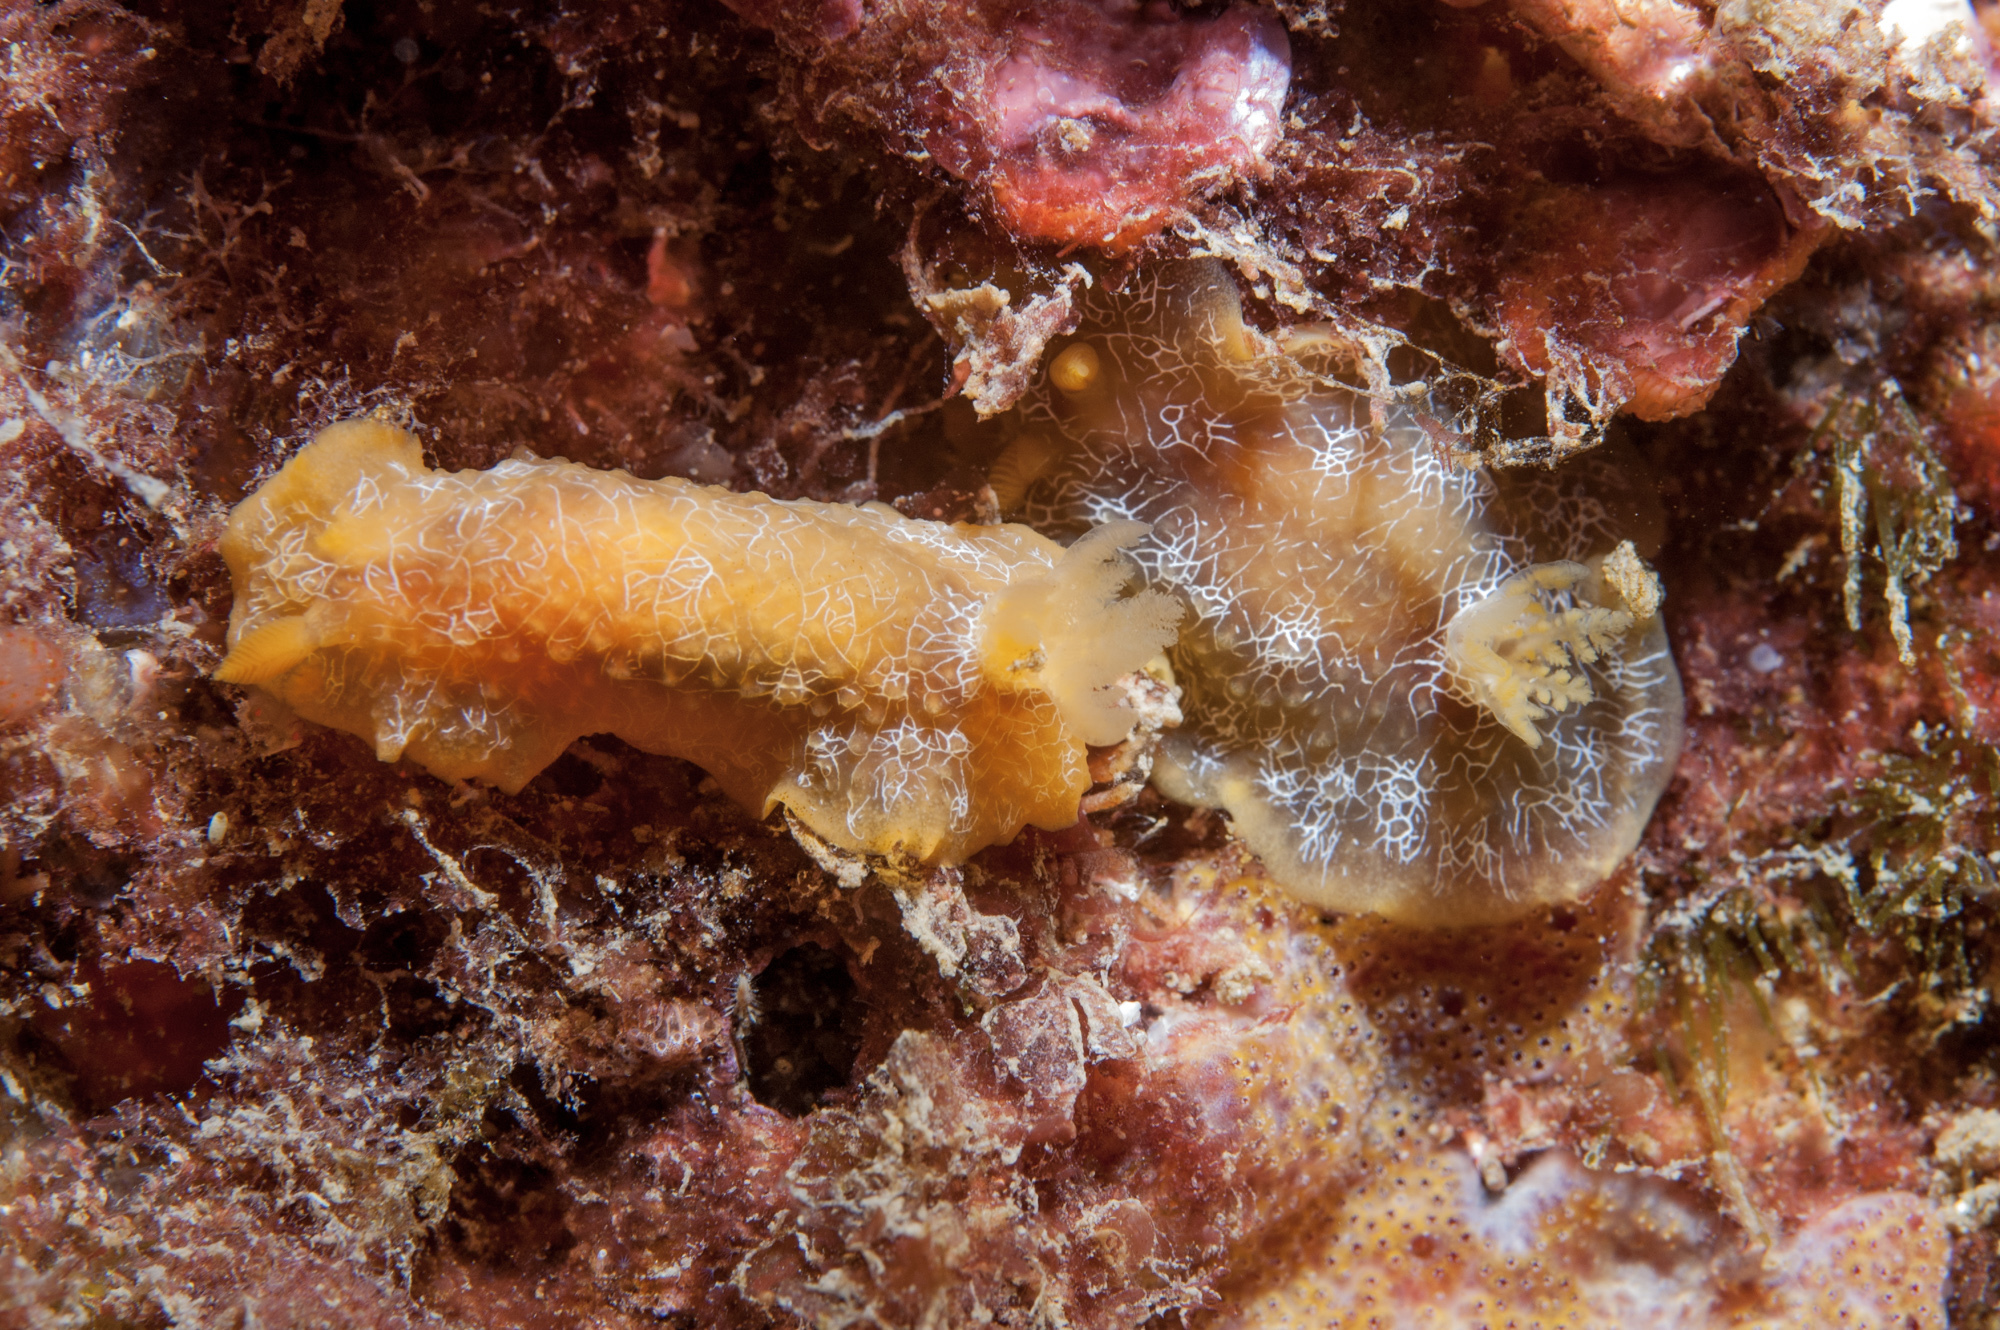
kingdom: Animalia
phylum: Mollusca
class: Gastropoda
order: Nudibranchia
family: Dendrodorididae
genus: Doriopsilla
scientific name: Doriopsilla areolata
